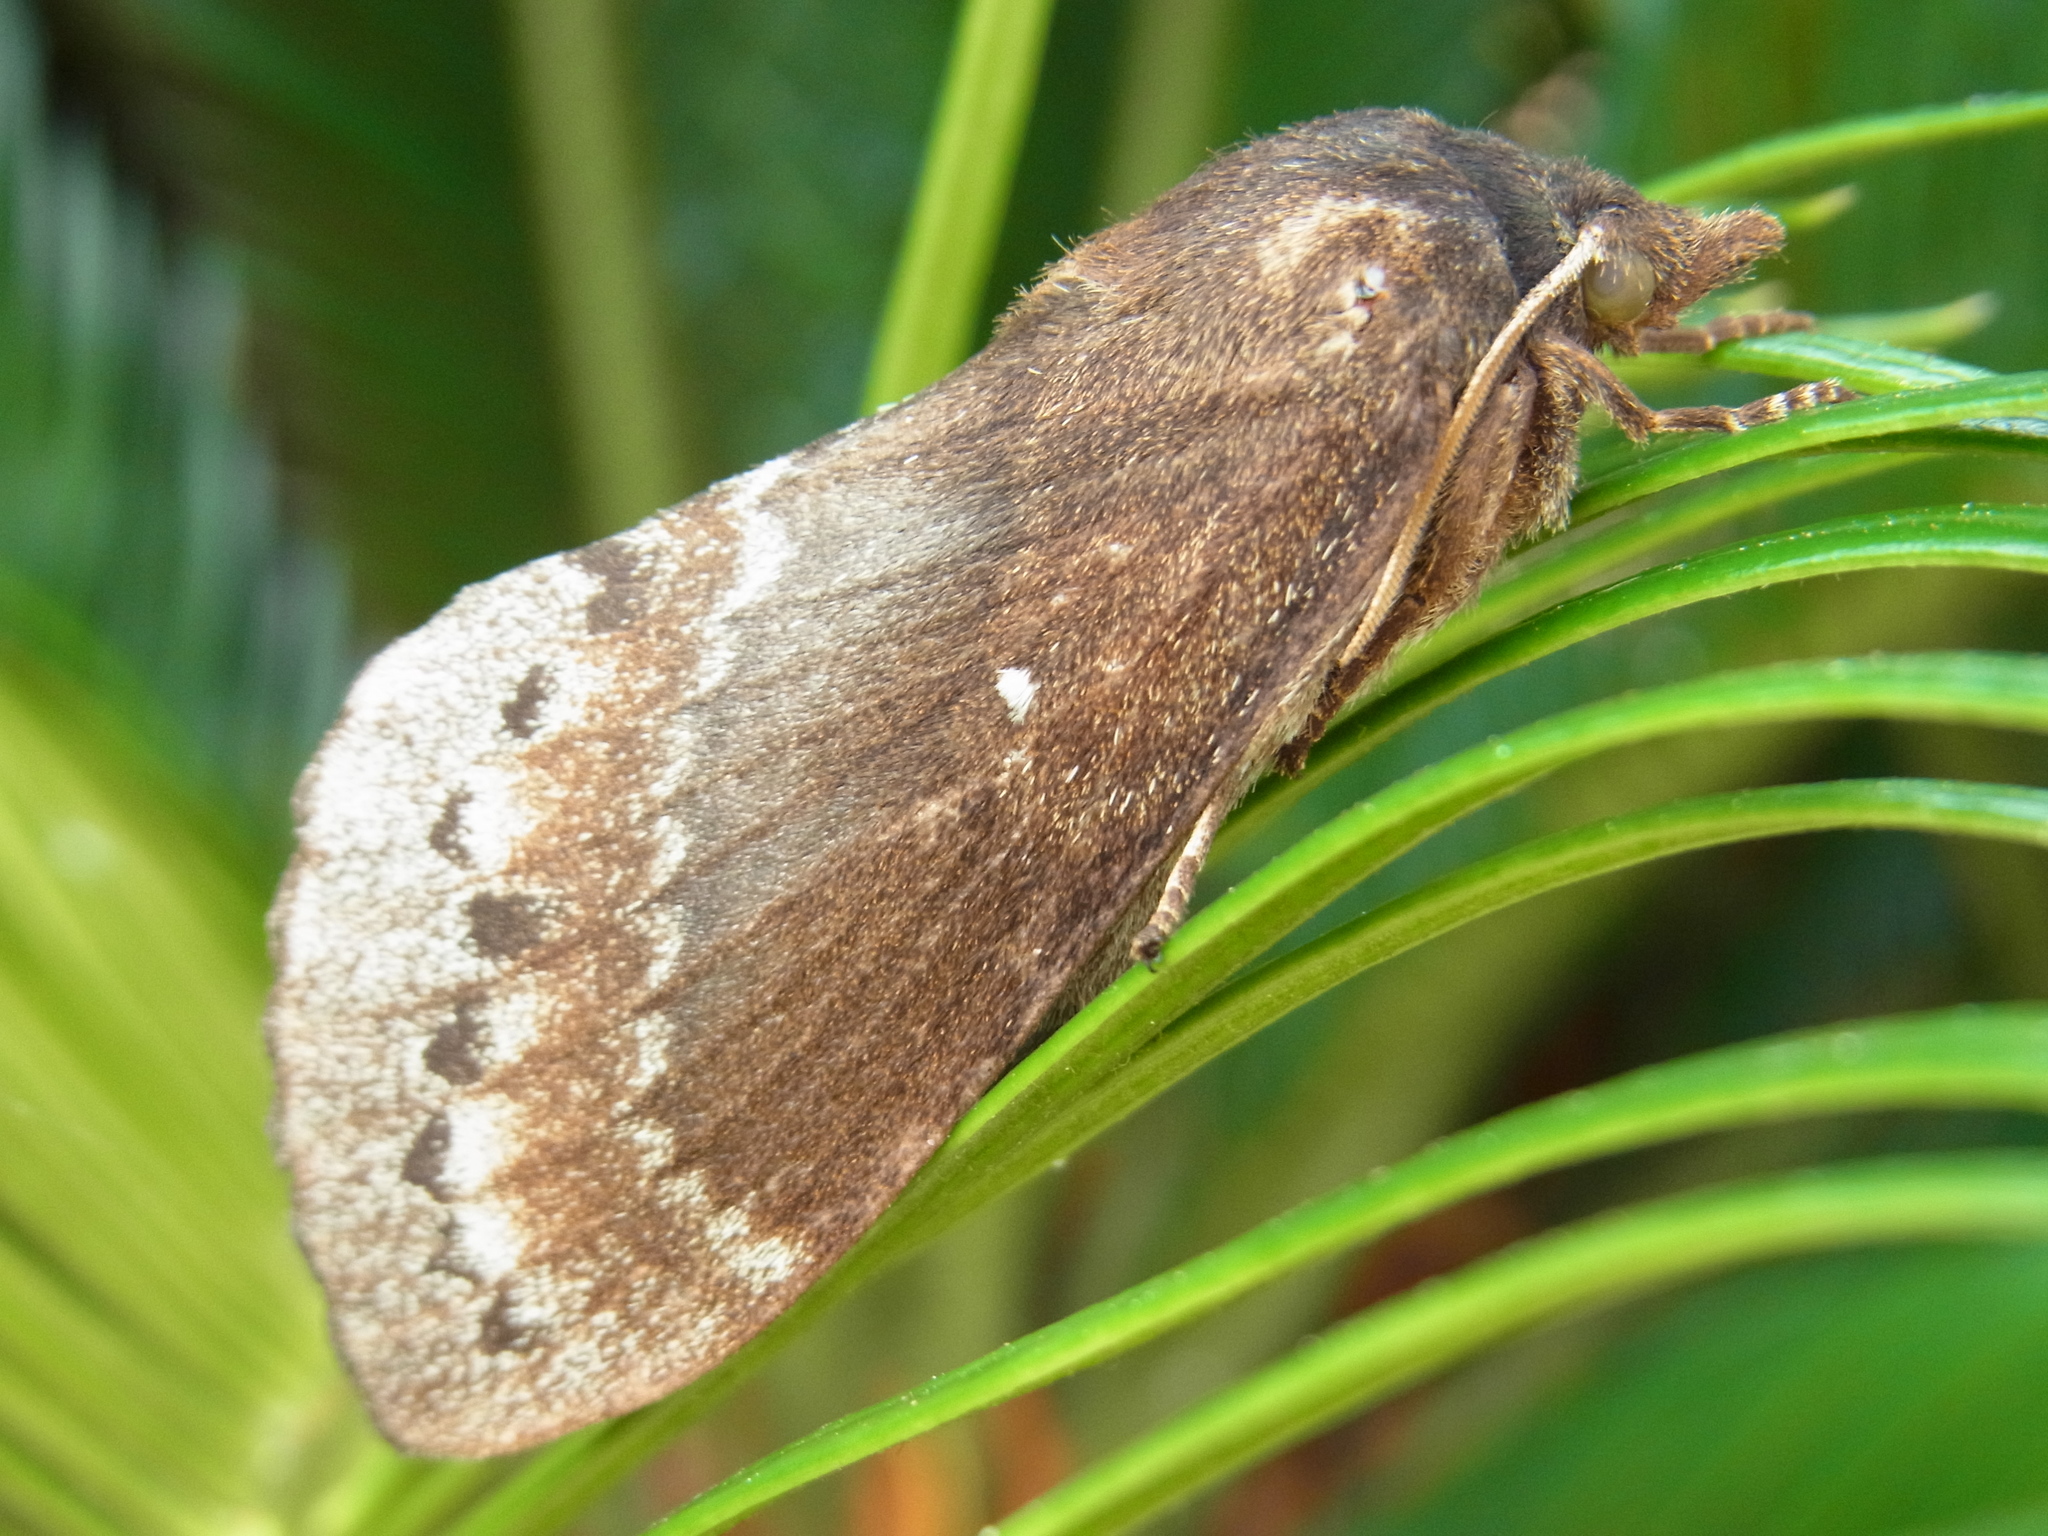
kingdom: Animalia
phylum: Arthropoda
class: Insecta
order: Lepidoptera
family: Lasiocampidae
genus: Dendrolimus
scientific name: Dendrolimus spectabilis
